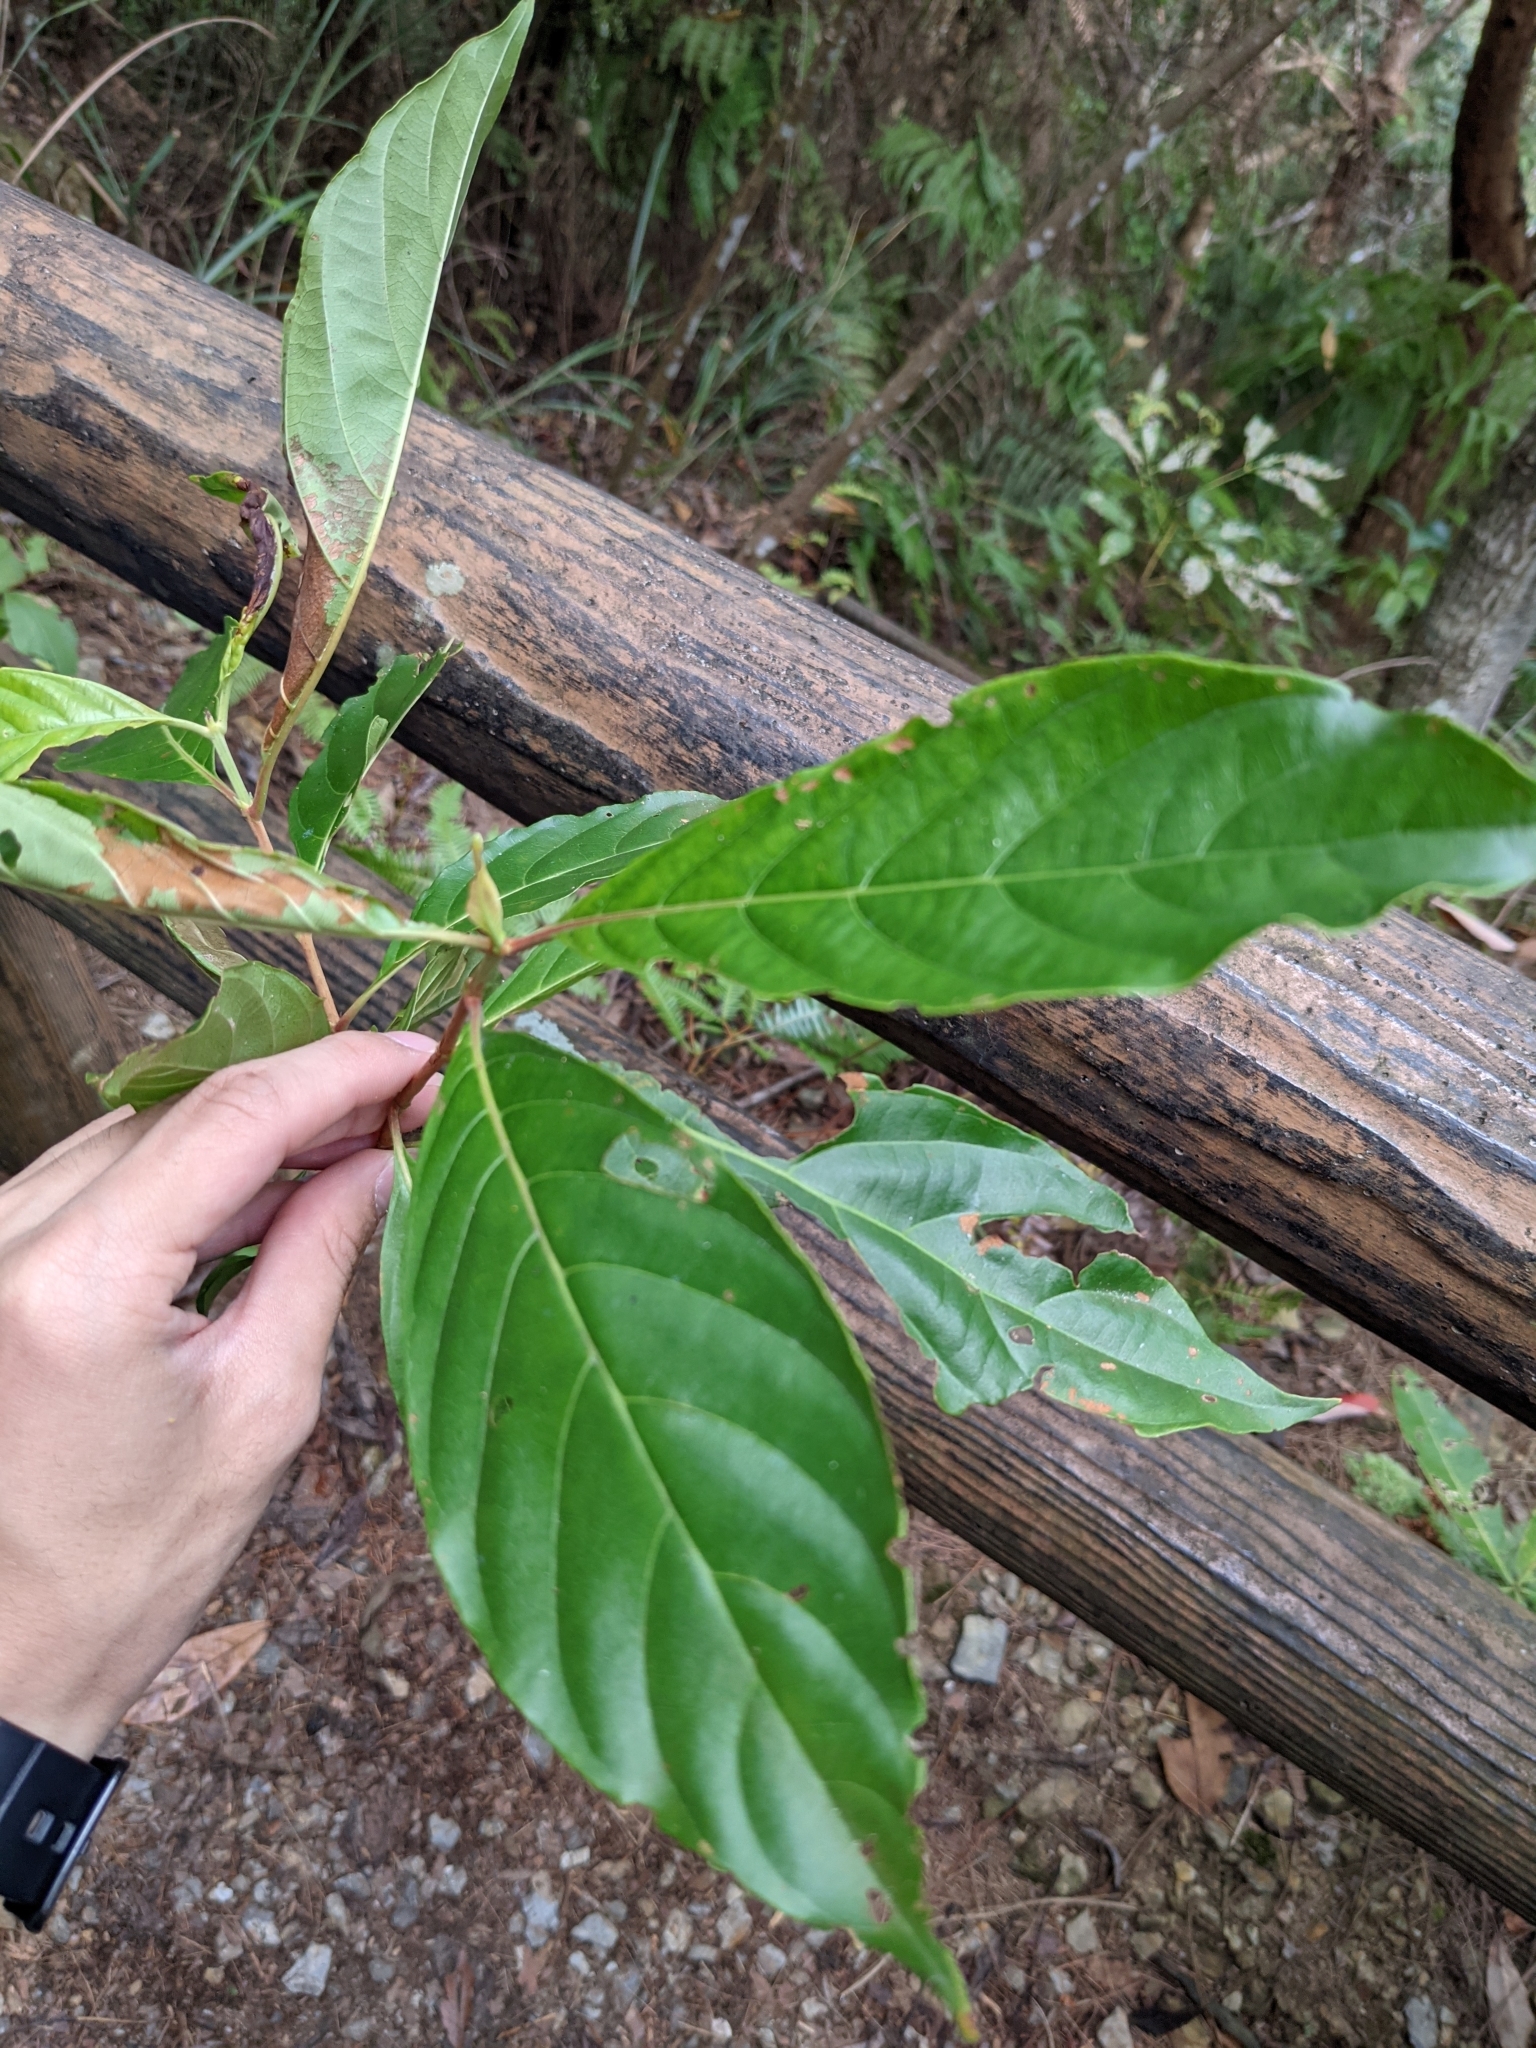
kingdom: Plantae
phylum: Tracheophyta
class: Magnoliopsida
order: Gentianales
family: Rubiaceae
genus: Wendlandia
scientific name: Wendlandia formosana
